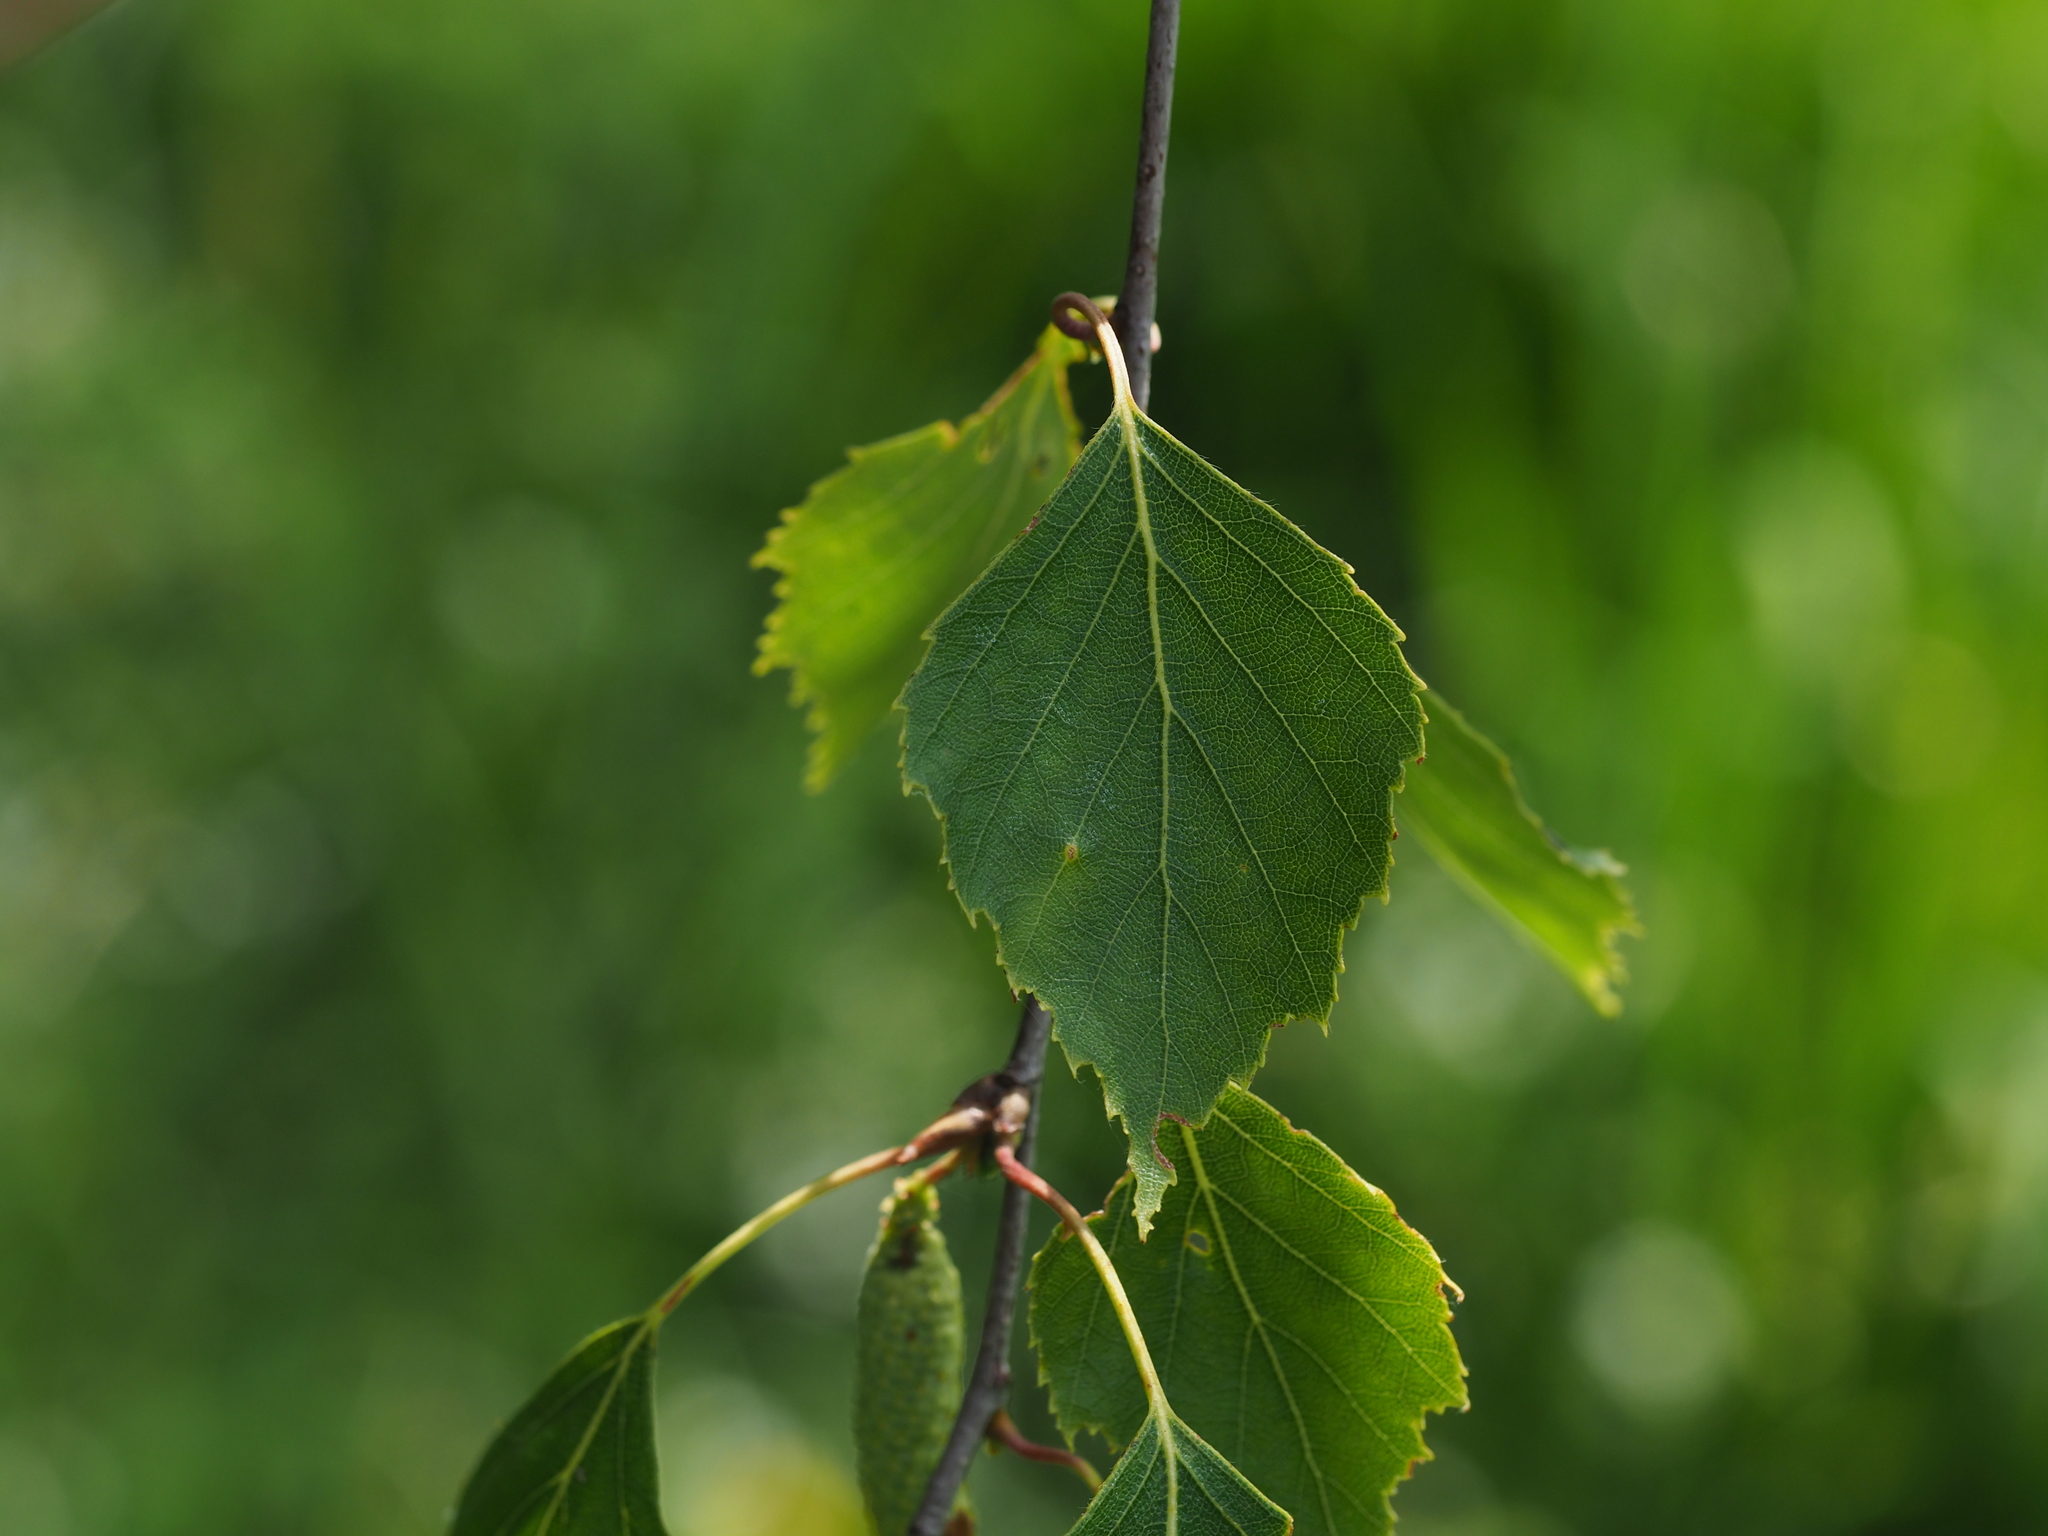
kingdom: Plantae
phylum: Tracheophyta
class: Magnoliopsida
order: Fagales
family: Betulaceae
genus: Betula
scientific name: Betula pendula
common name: Silver birch
